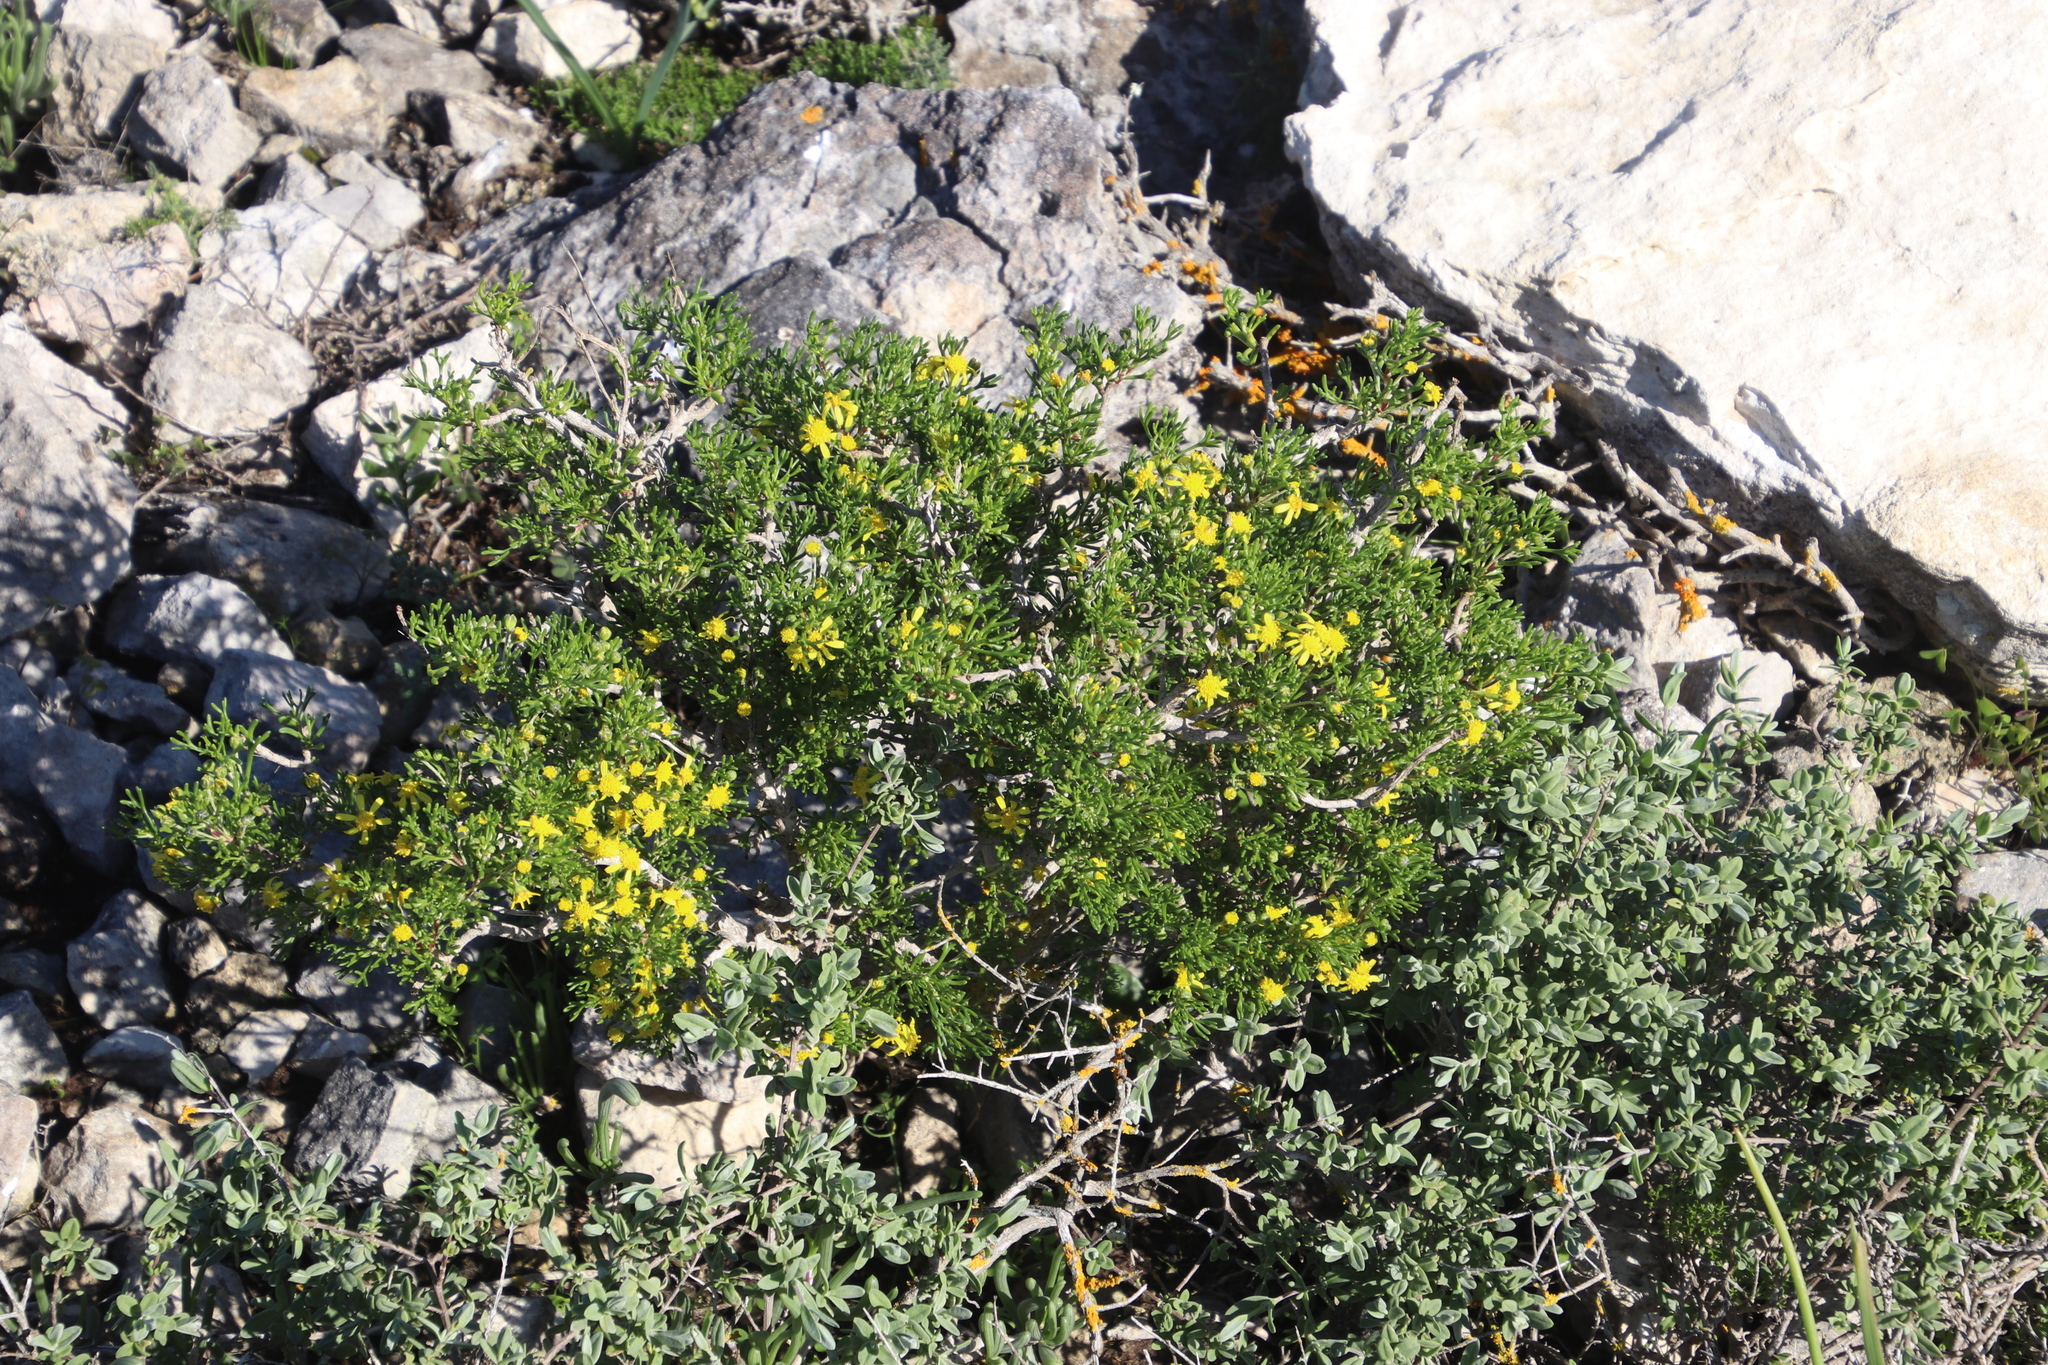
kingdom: Plantae
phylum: Tracheophyta
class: Magnoliopsida
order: Asterales
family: Asteraceae
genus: Euryops
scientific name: Euryops multifidus
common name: Hawk's eye
